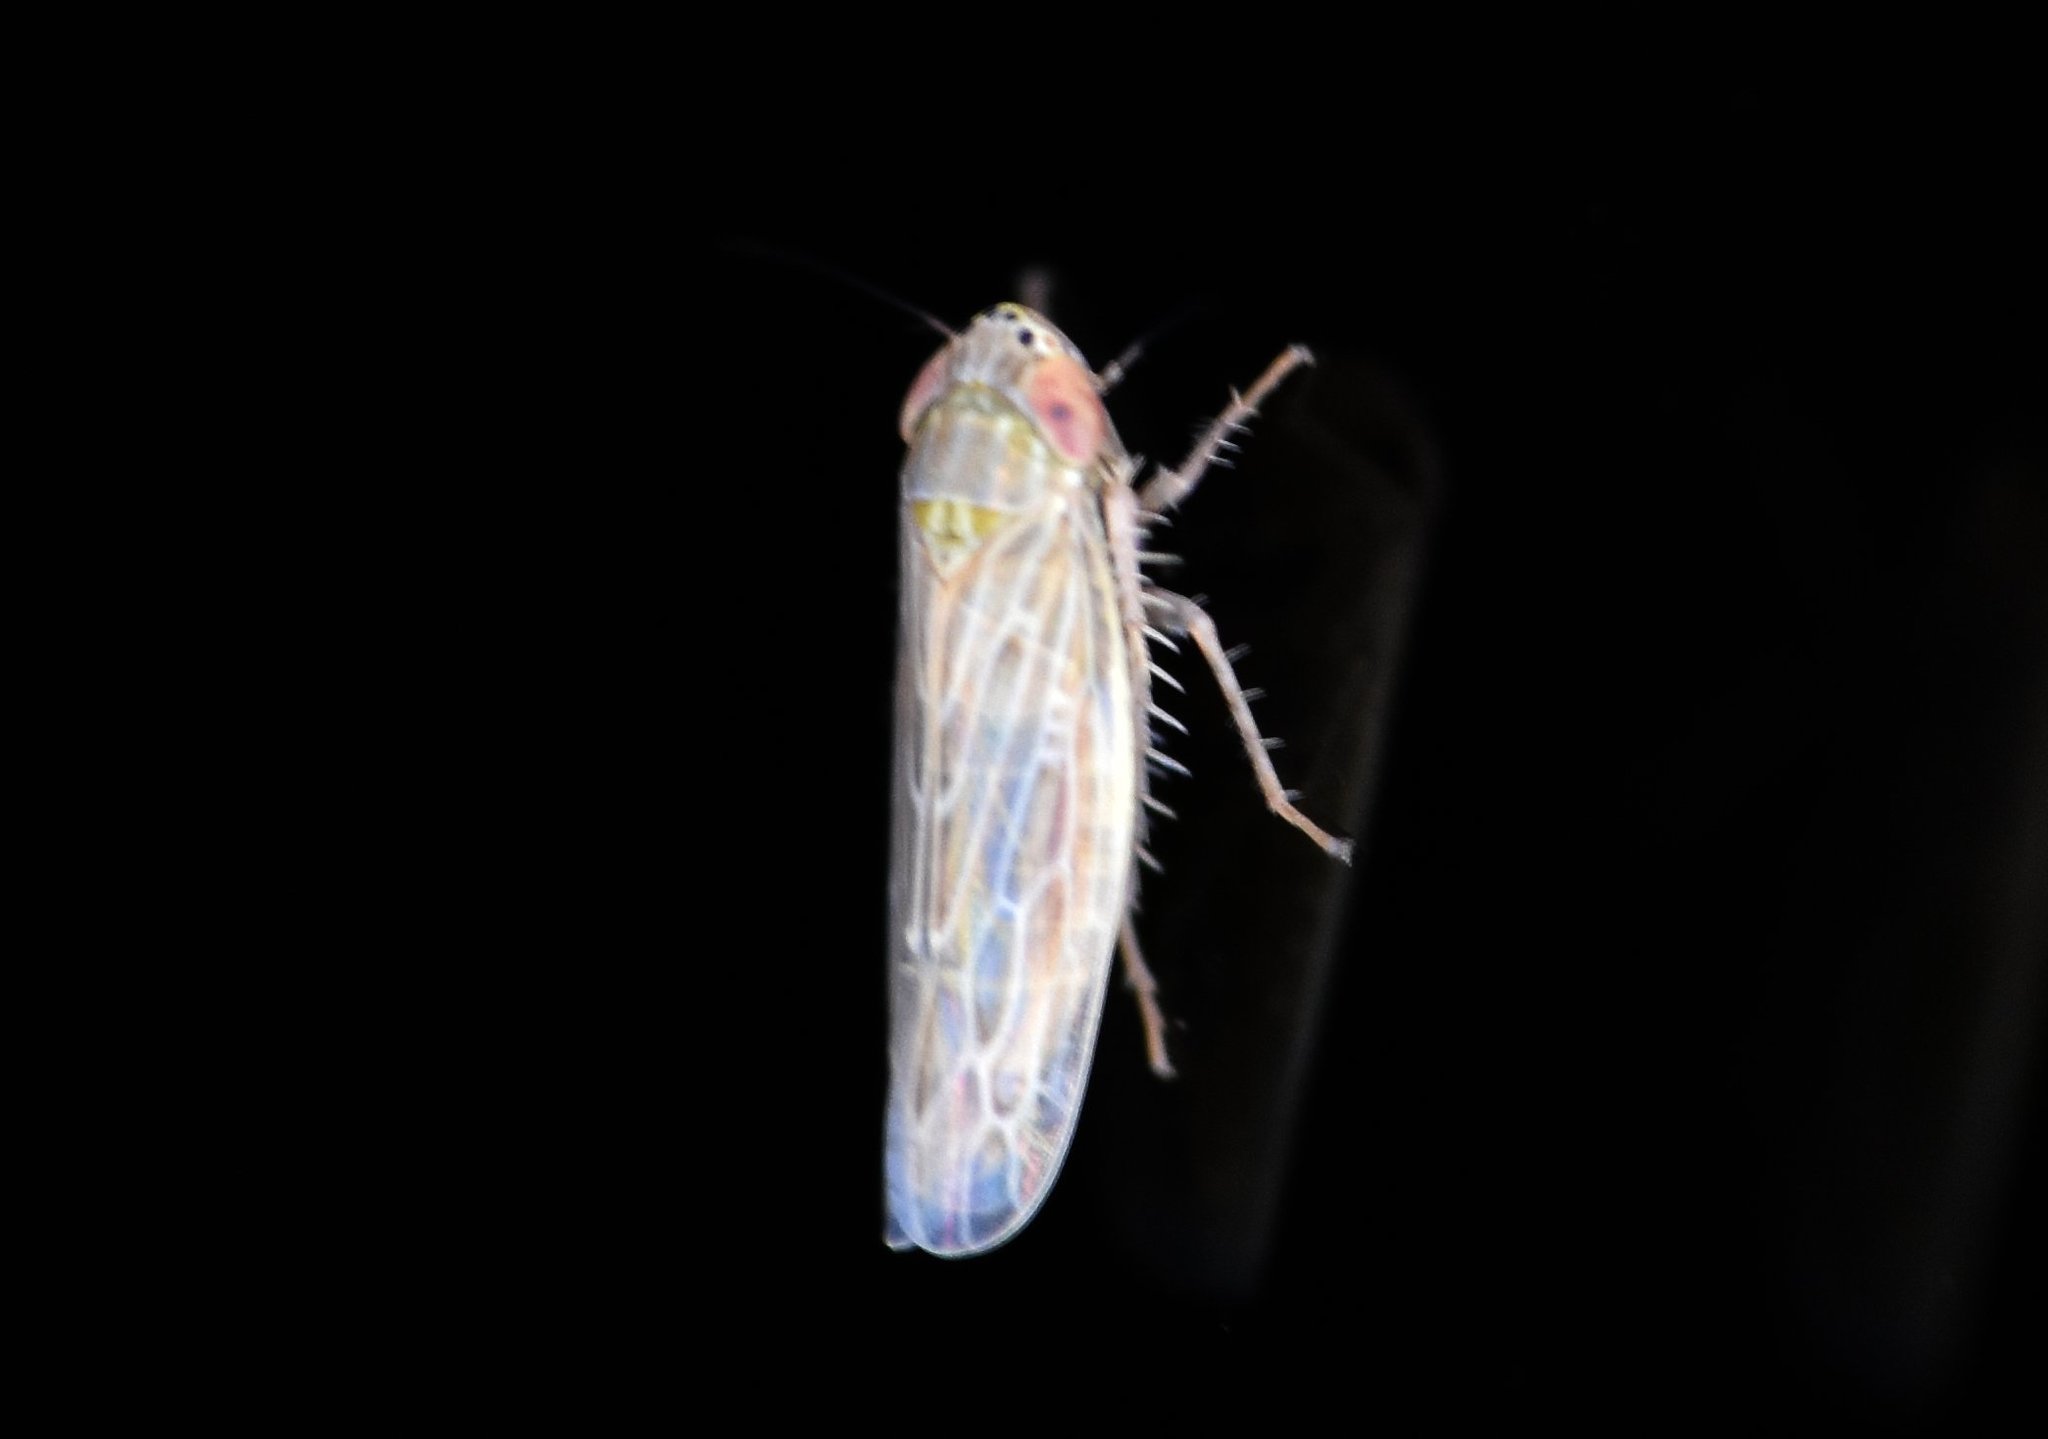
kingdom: Animalia
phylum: Arthropoda
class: Insecta
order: Hemiptera
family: Cicadellidae
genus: Graminella
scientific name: Graminella sonora
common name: Lesser lawn leafhopper
